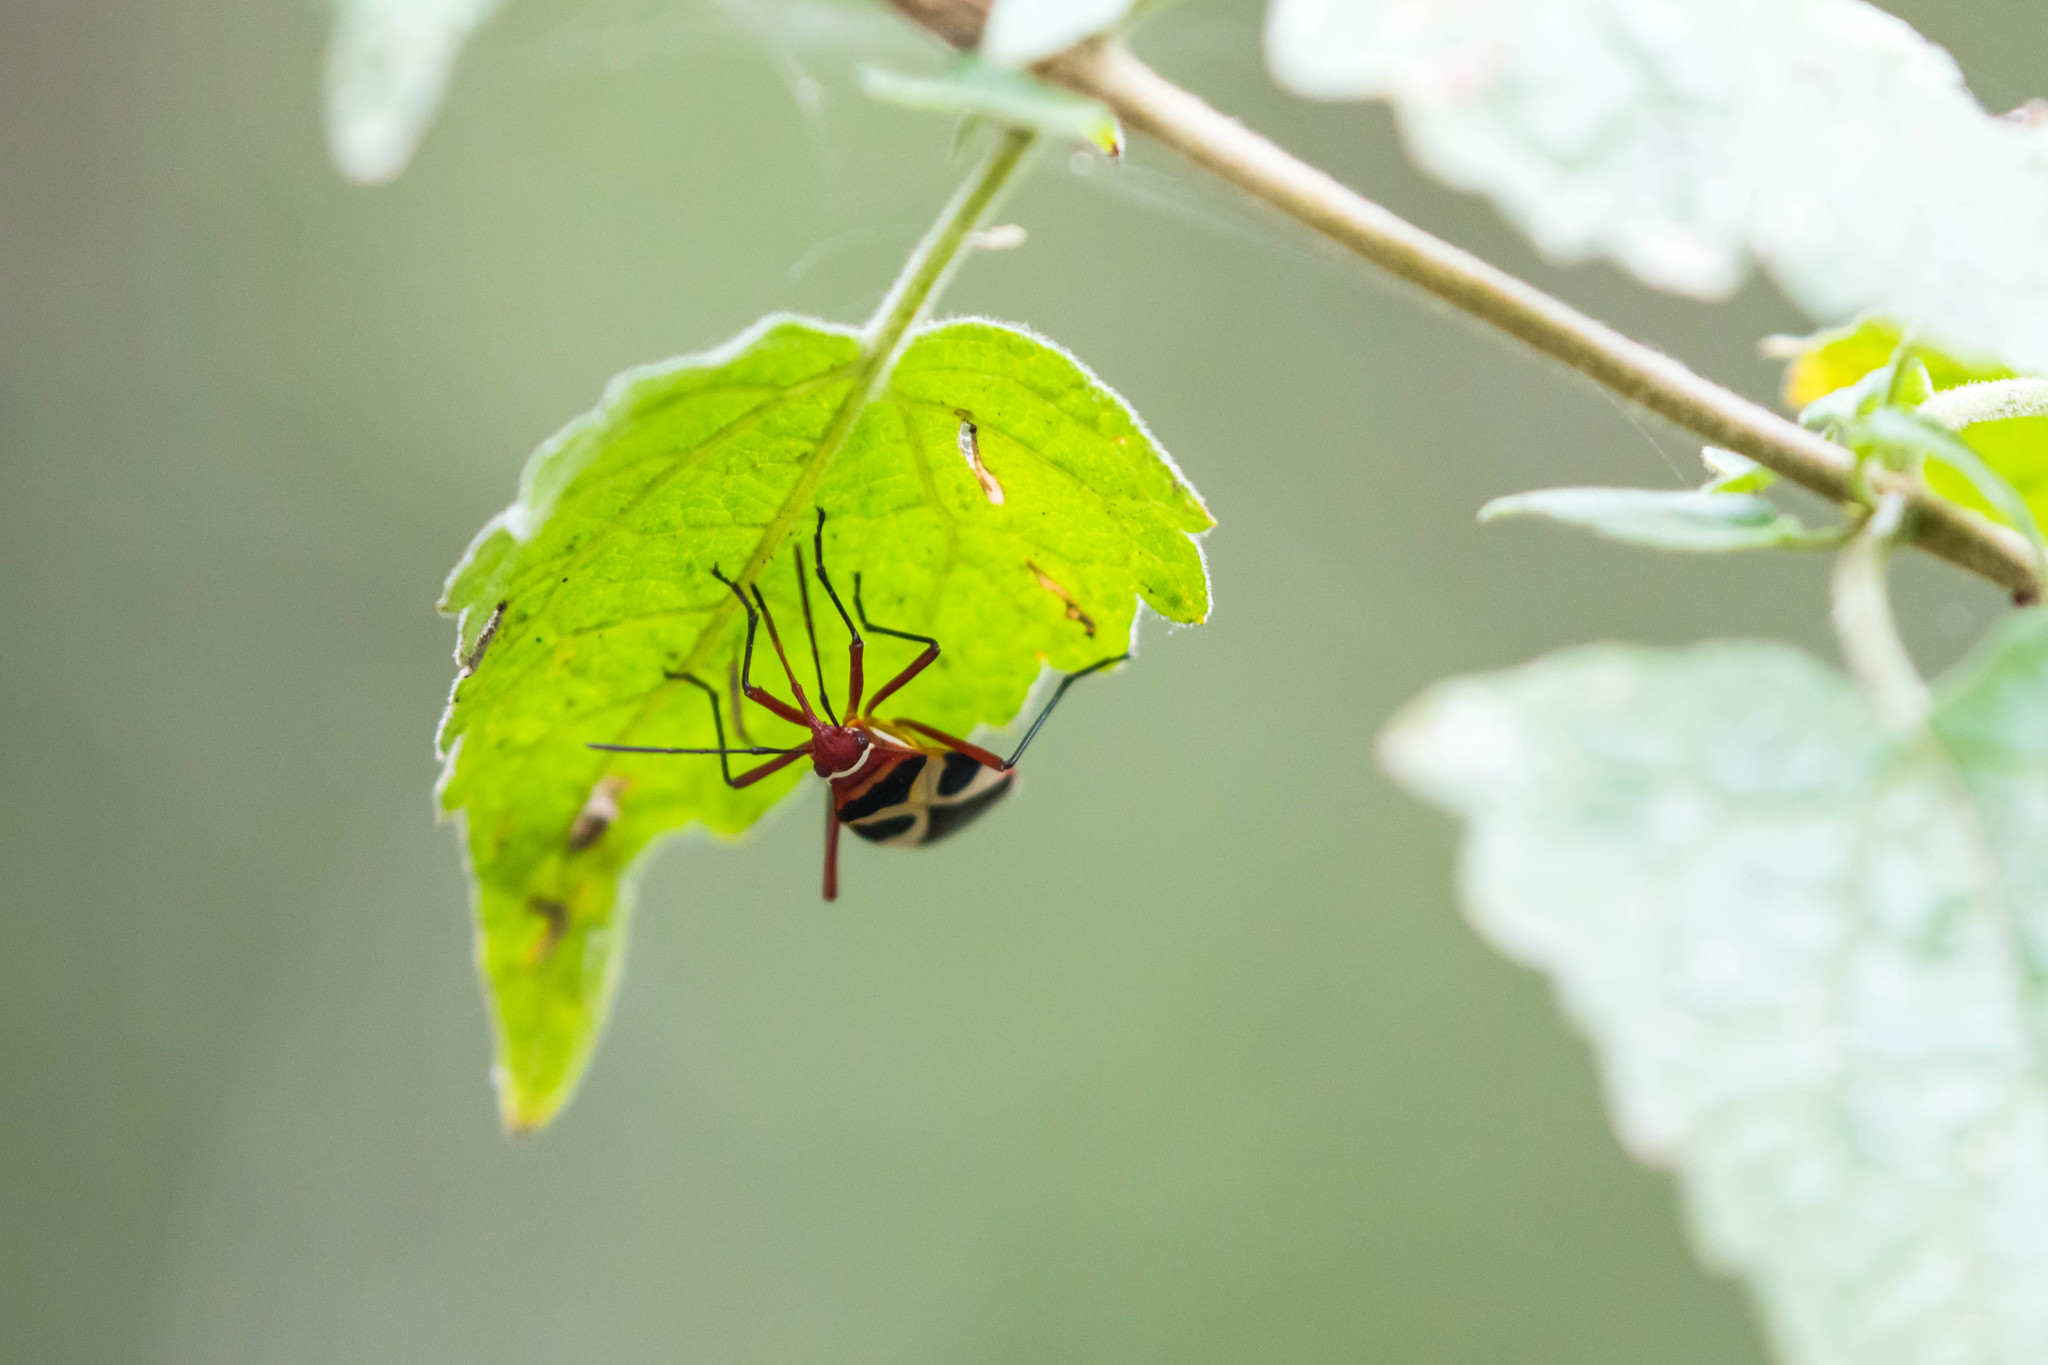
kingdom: Animalia
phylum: Arthropoda
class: Insecta
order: Hemiptera
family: Pyrrhocoridae
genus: Dysdercus
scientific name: Dysdercus concinnus
